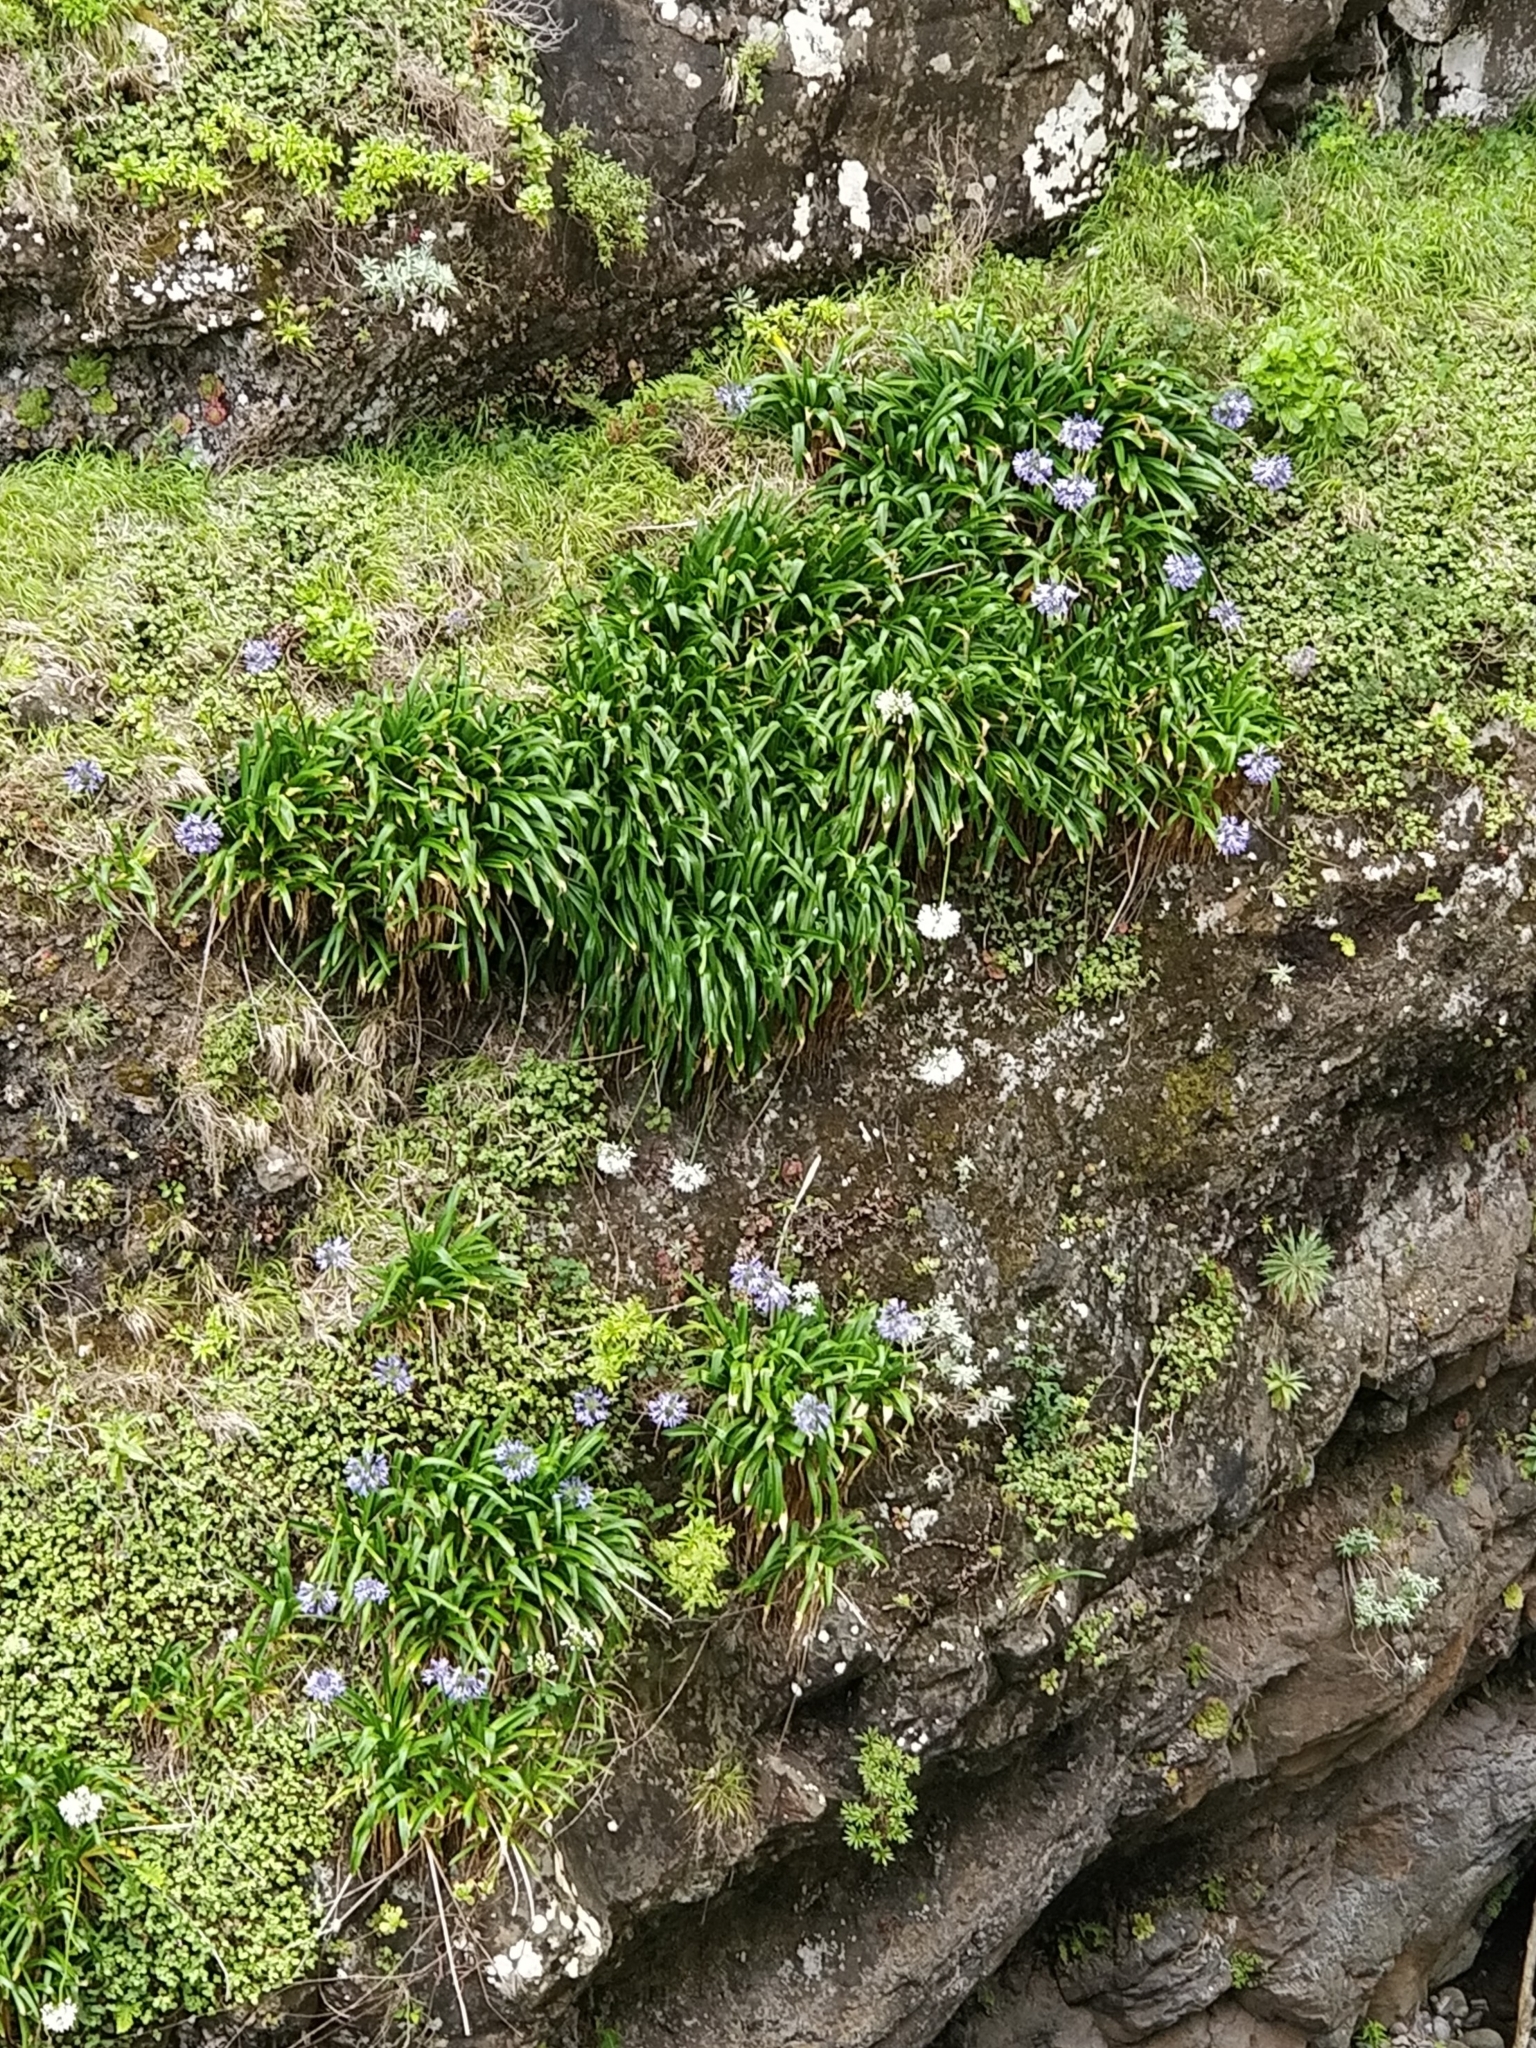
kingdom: Plantae
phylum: Tracheophyta
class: Liliopsida
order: Asparagales
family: Amaryllidaceae
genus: Agapanthus
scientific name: Agapanthus praecox
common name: African-lily
